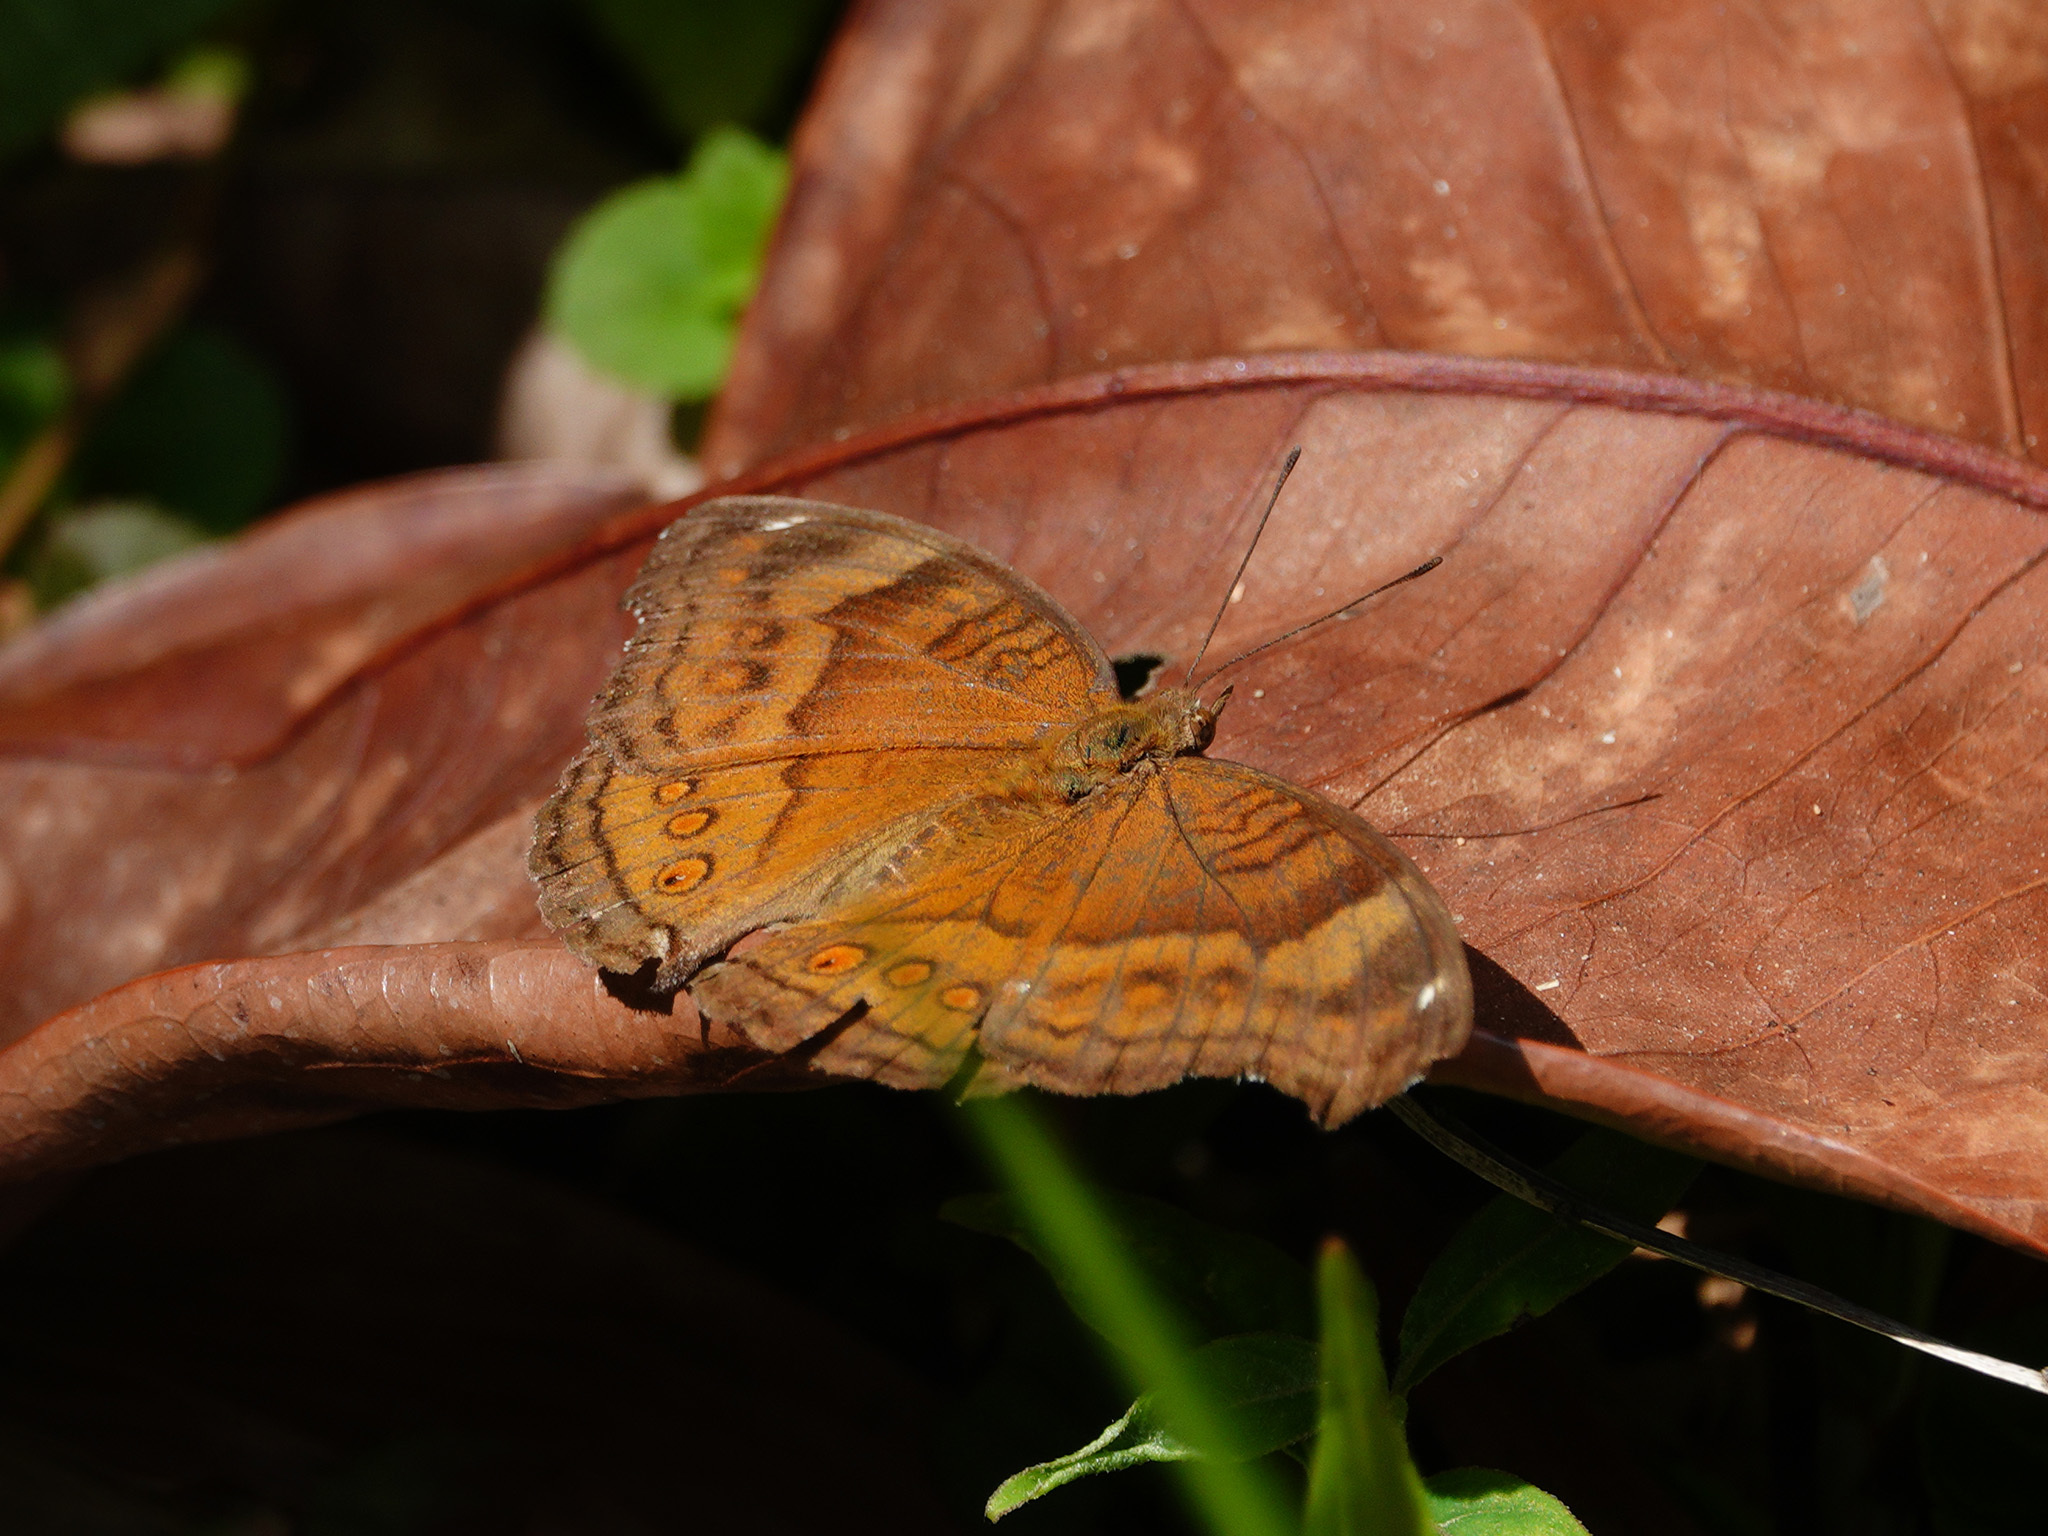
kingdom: Animalia
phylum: Arthropoda
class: Insecta
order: Lepidoptera
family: Nymphalidae
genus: Junonia
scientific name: Junonia hedonia
